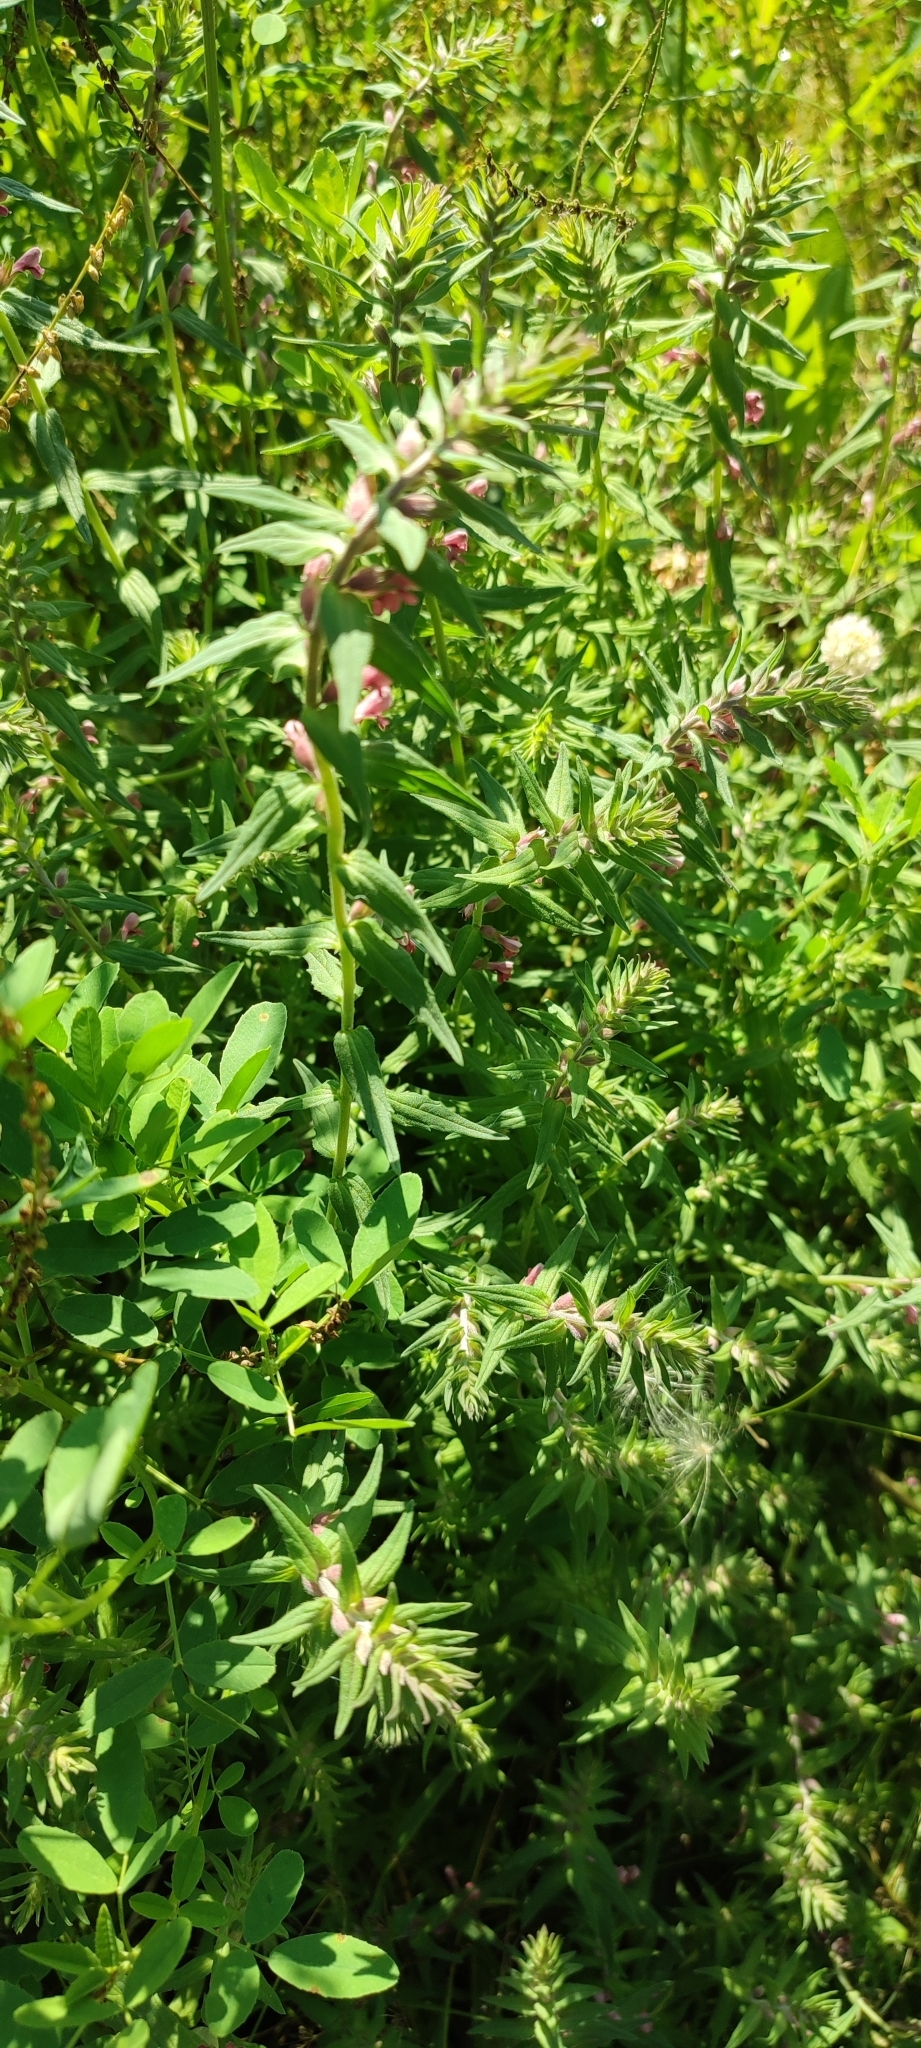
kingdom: Plantae
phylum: Tracheophyta
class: Magnoliopsida
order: Lamiales
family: Orobanchaceae
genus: Odontites
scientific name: Odontites vulgaris
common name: Broomrape
